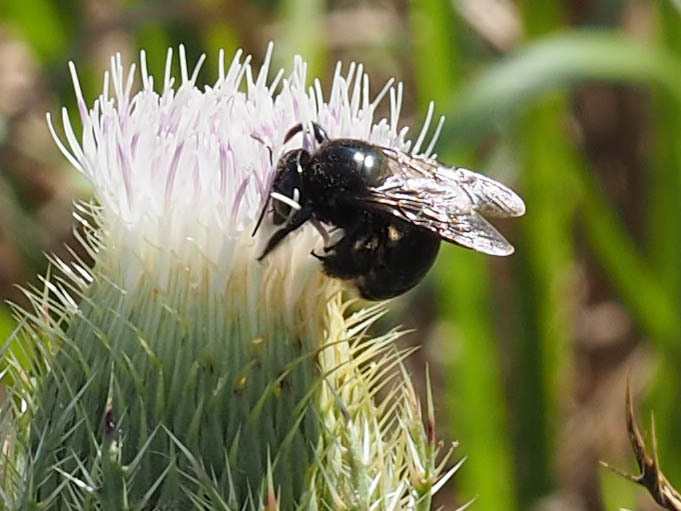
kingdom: Animalia
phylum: Arthropoda
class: Insecta
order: Hymenoptera
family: Apidae
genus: Xylocopa
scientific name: Xylocopa micans
